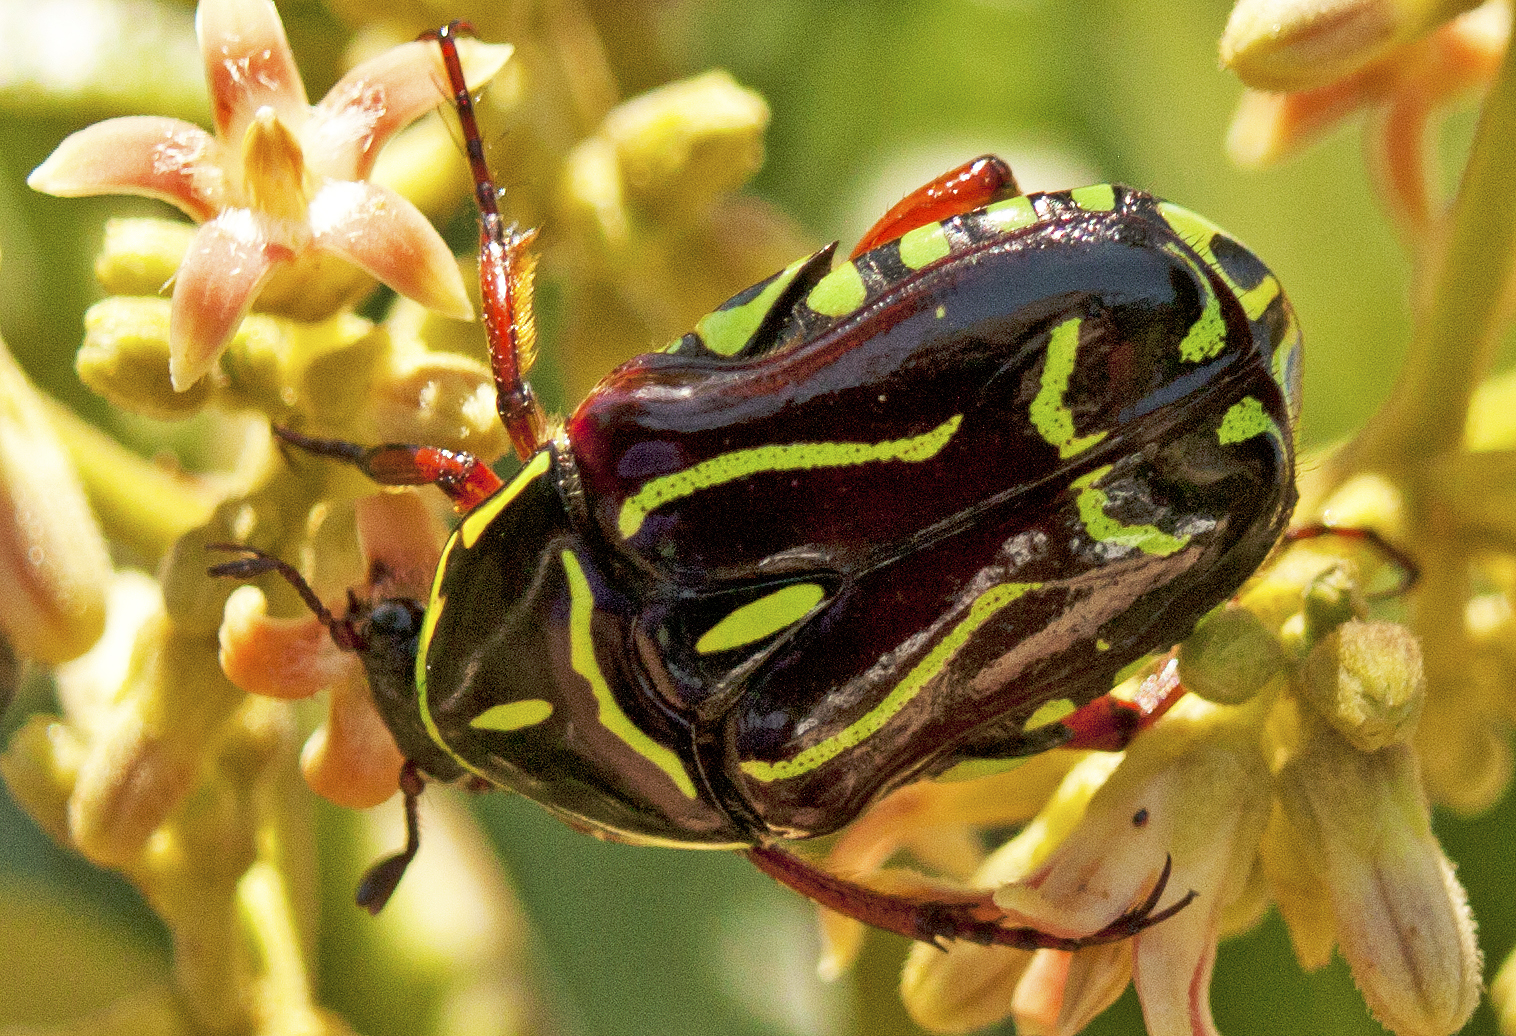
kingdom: Animalia
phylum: Arthropoda
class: Insecta
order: Coleoptera
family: Scarabaeidae
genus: Eupoecila
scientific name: Eupoecila australasiae
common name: Fiddler beetle
